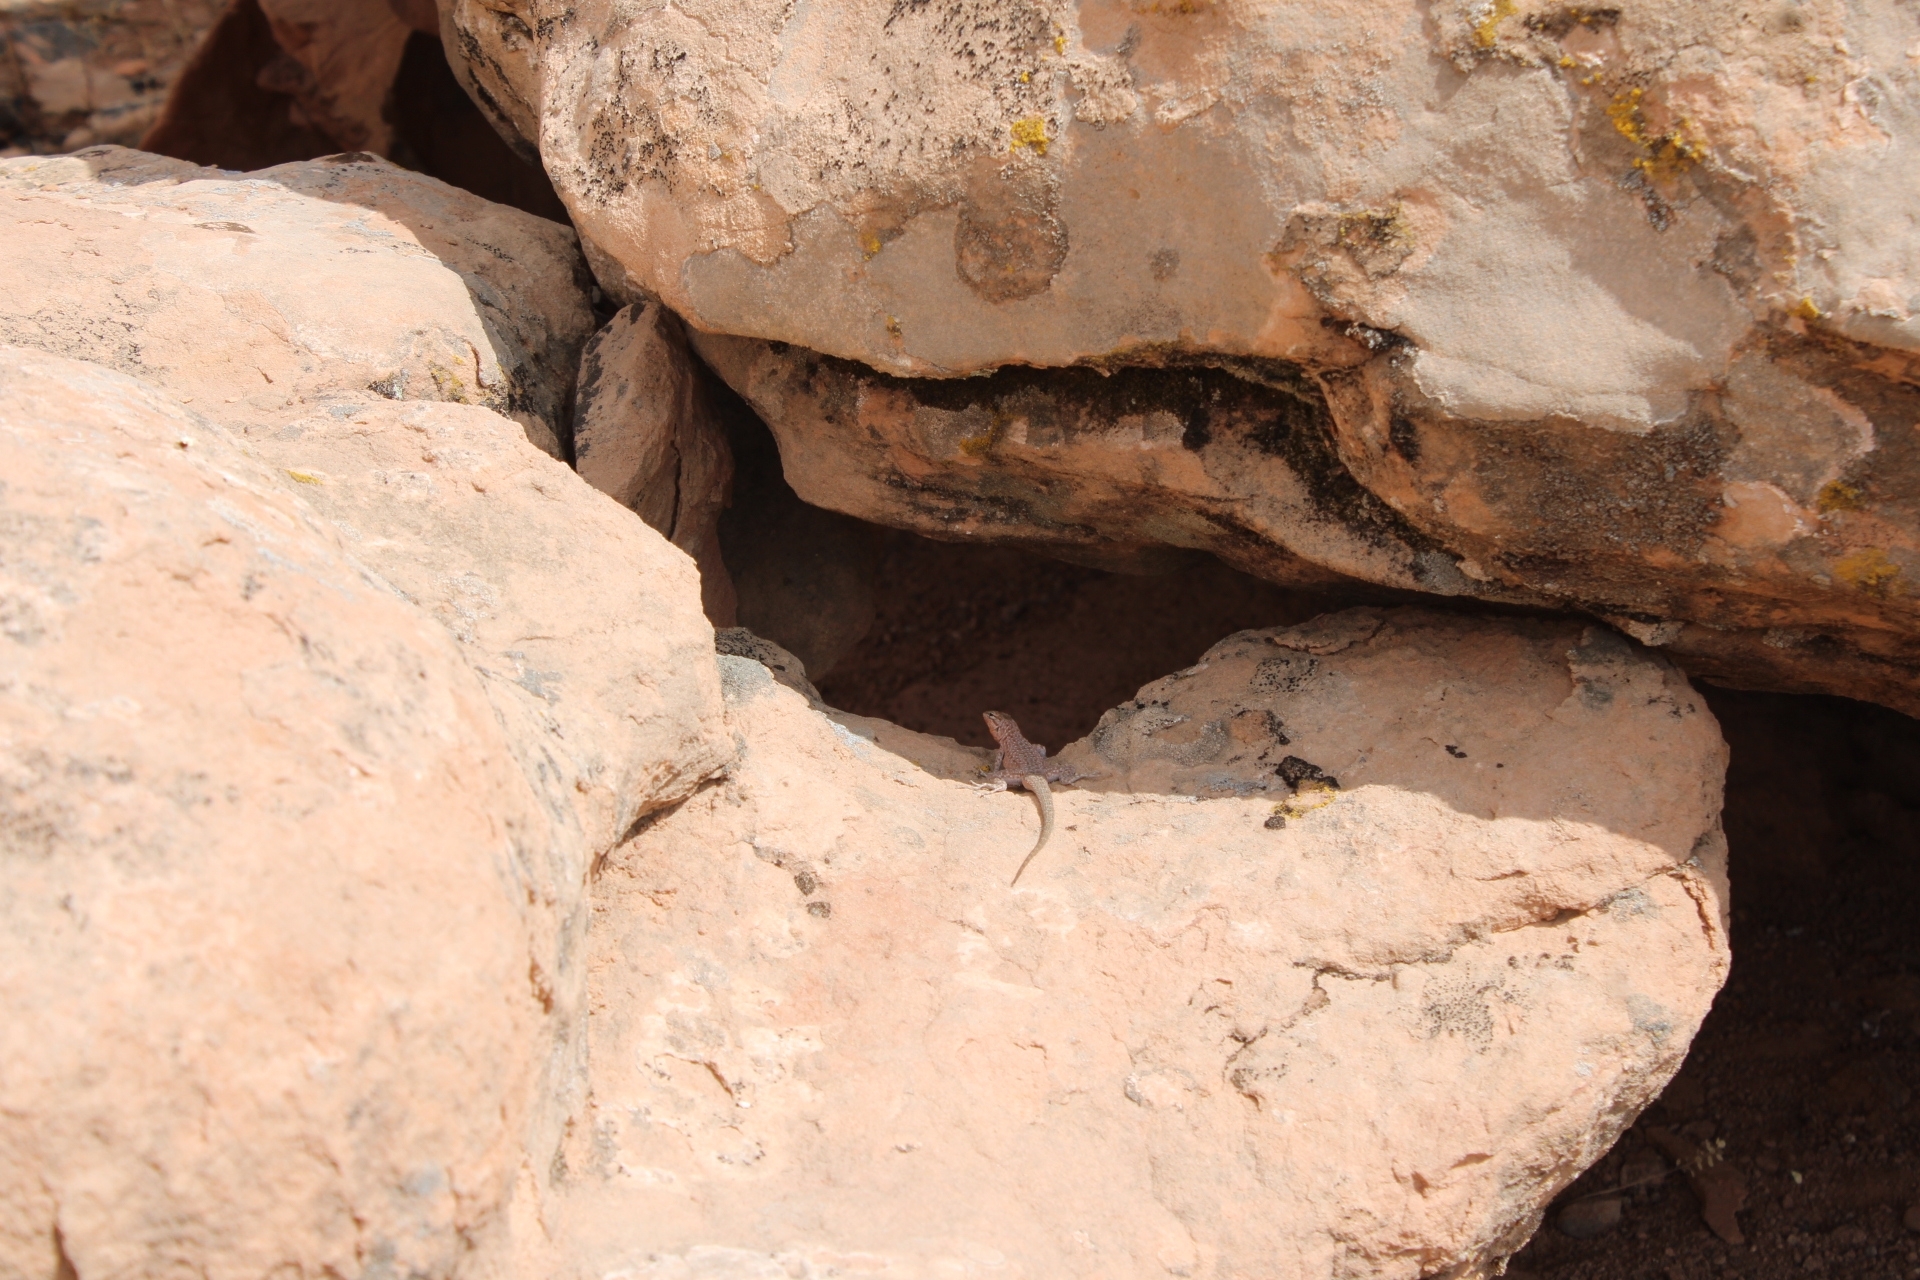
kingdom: Animalia
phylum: Chordata
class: Squamata
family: Phrynosomatidae
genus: Uta
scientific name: Uta stansburiana
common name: Side-blotched lizard
